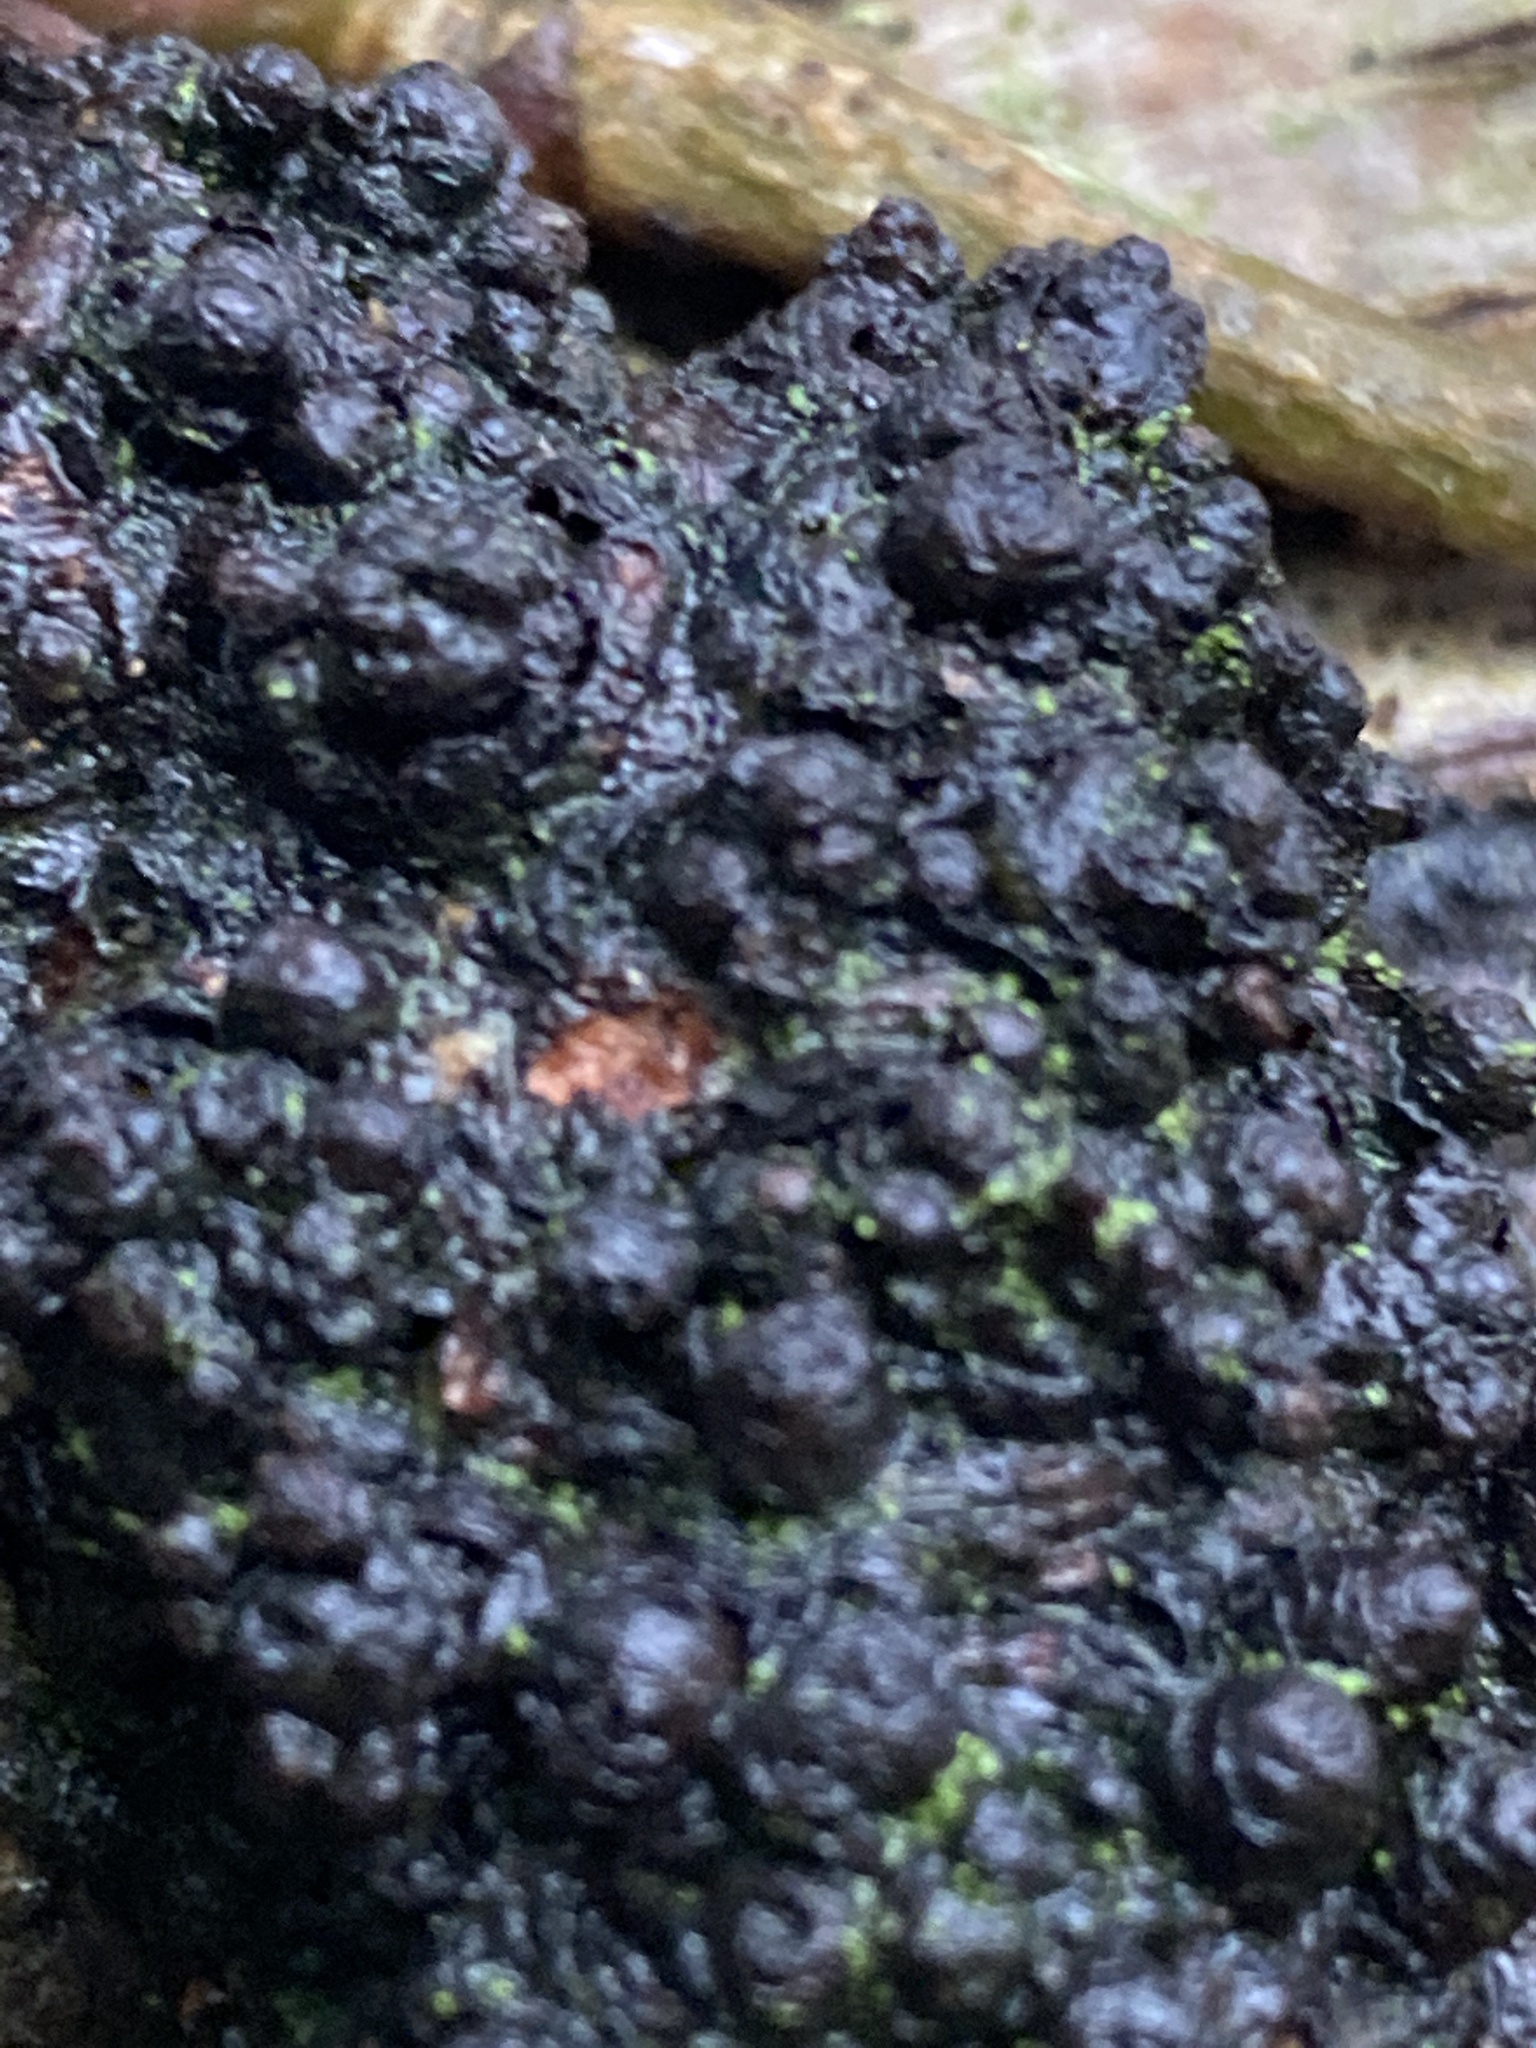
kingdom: Bacteria
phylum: Proteobacteria
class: Alphaproteobacteria
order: Rhizobiales
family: Rhizobiaceae
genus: Rhizobium
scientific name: Rhizobium Agrobacterium radiobacter
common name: Bacterial crown gall
